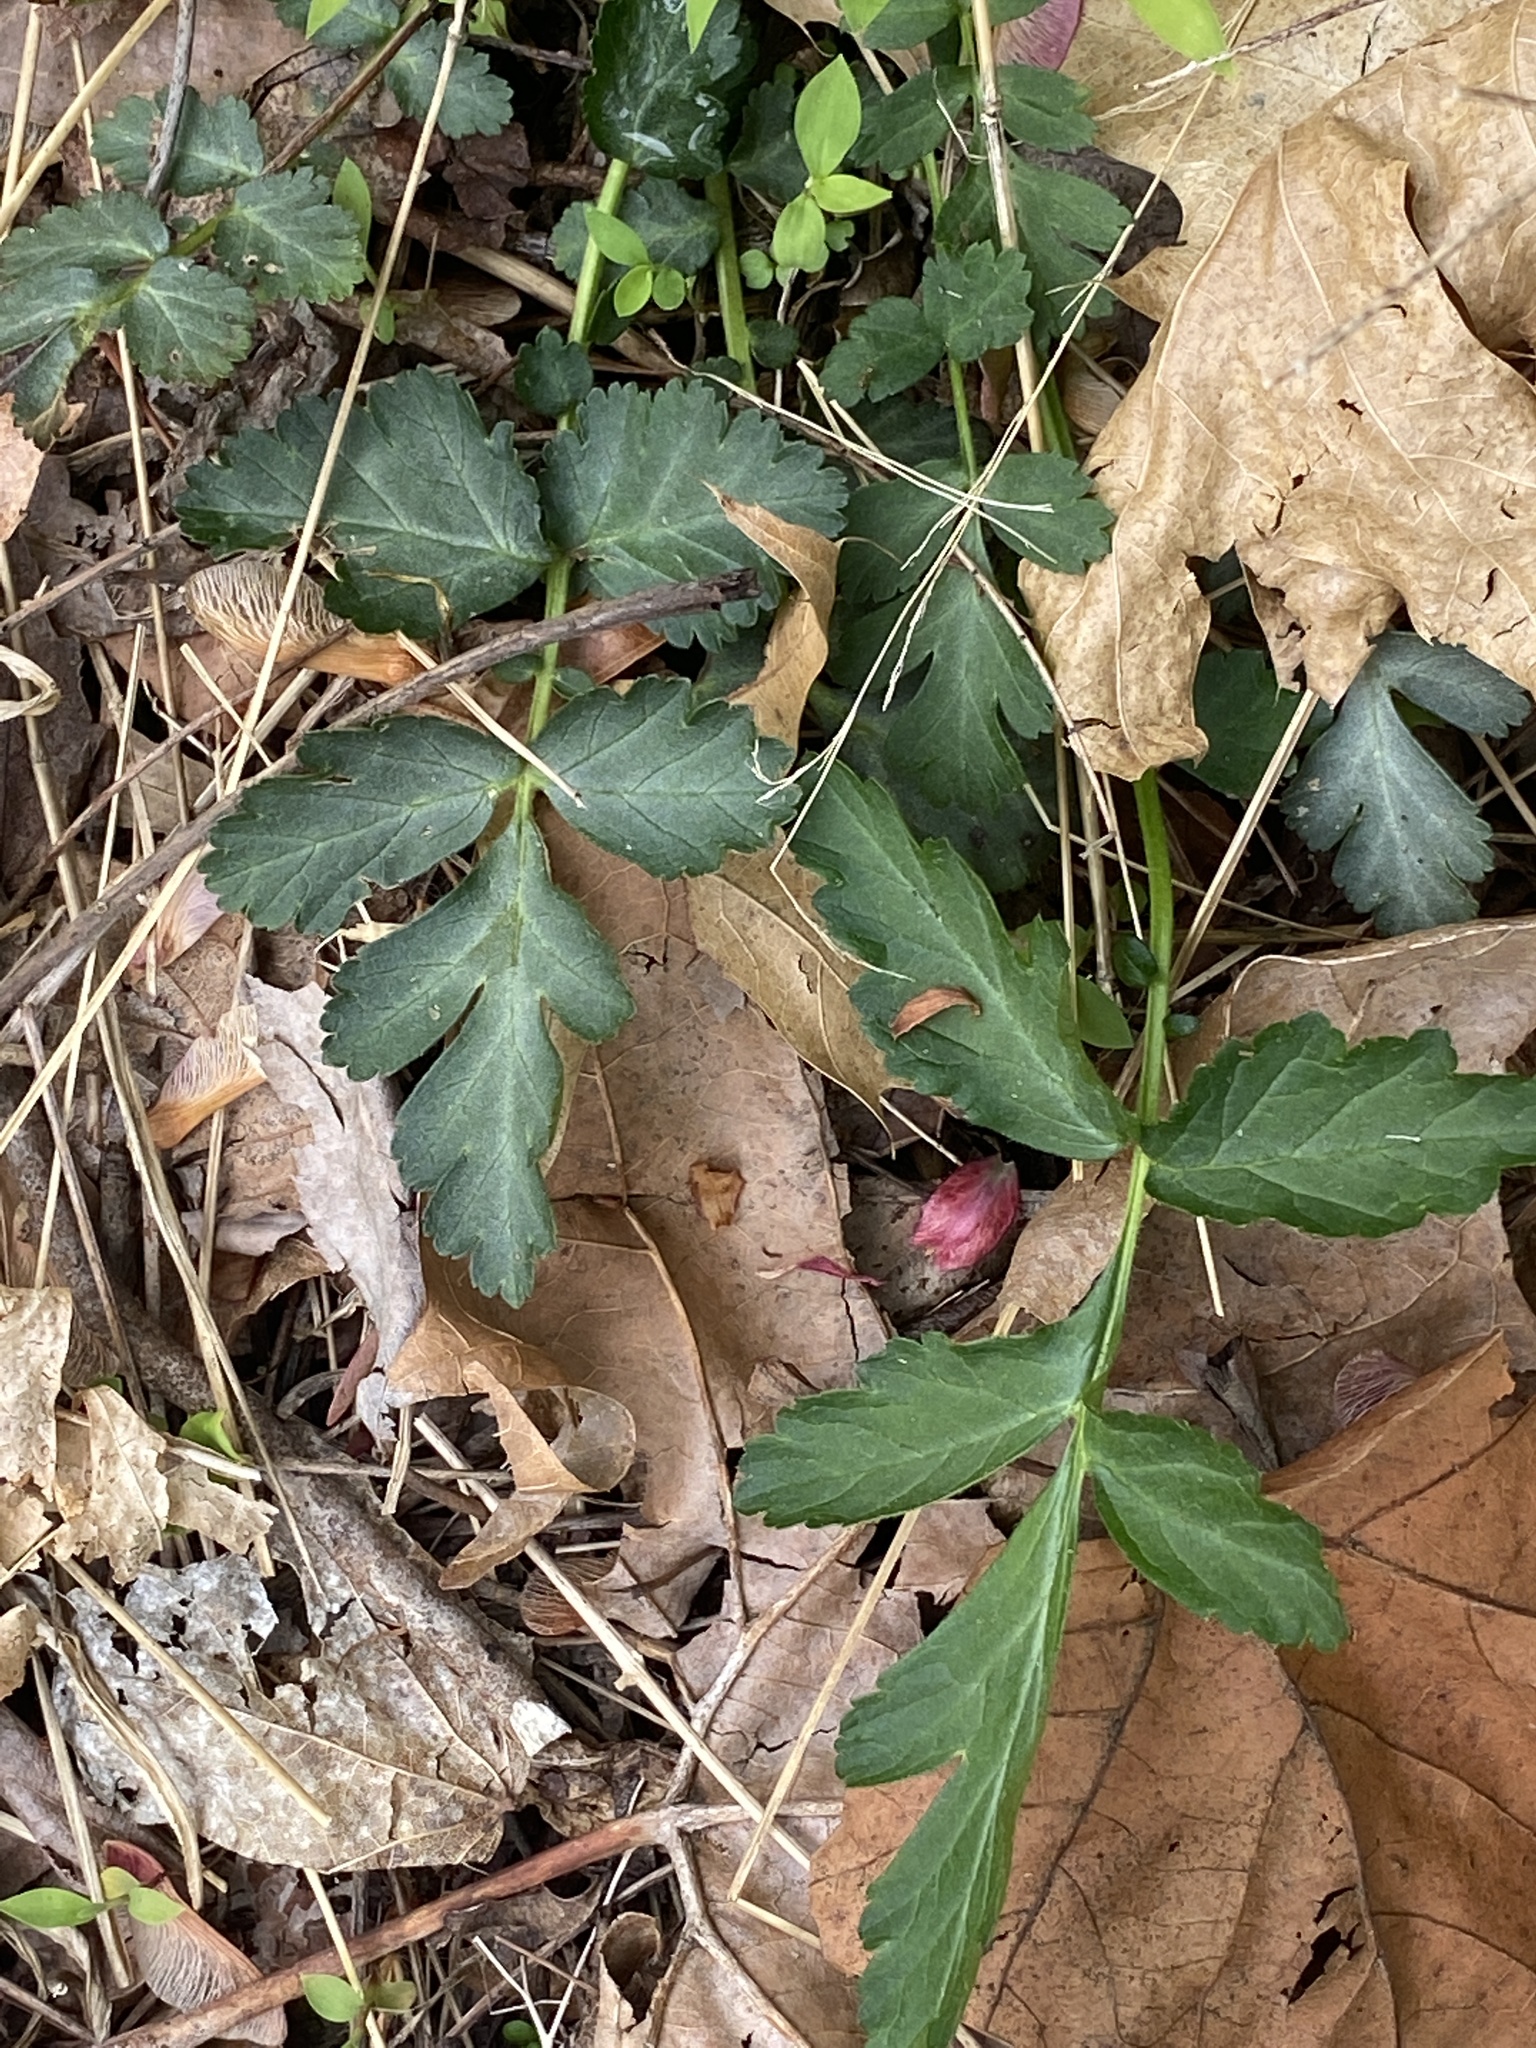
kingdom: Plantae
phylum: Tracheophyta
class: Magnoliopsida
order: Rosales
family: Rosaceae
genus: Geum
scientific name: Geum canadense
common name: White avens
